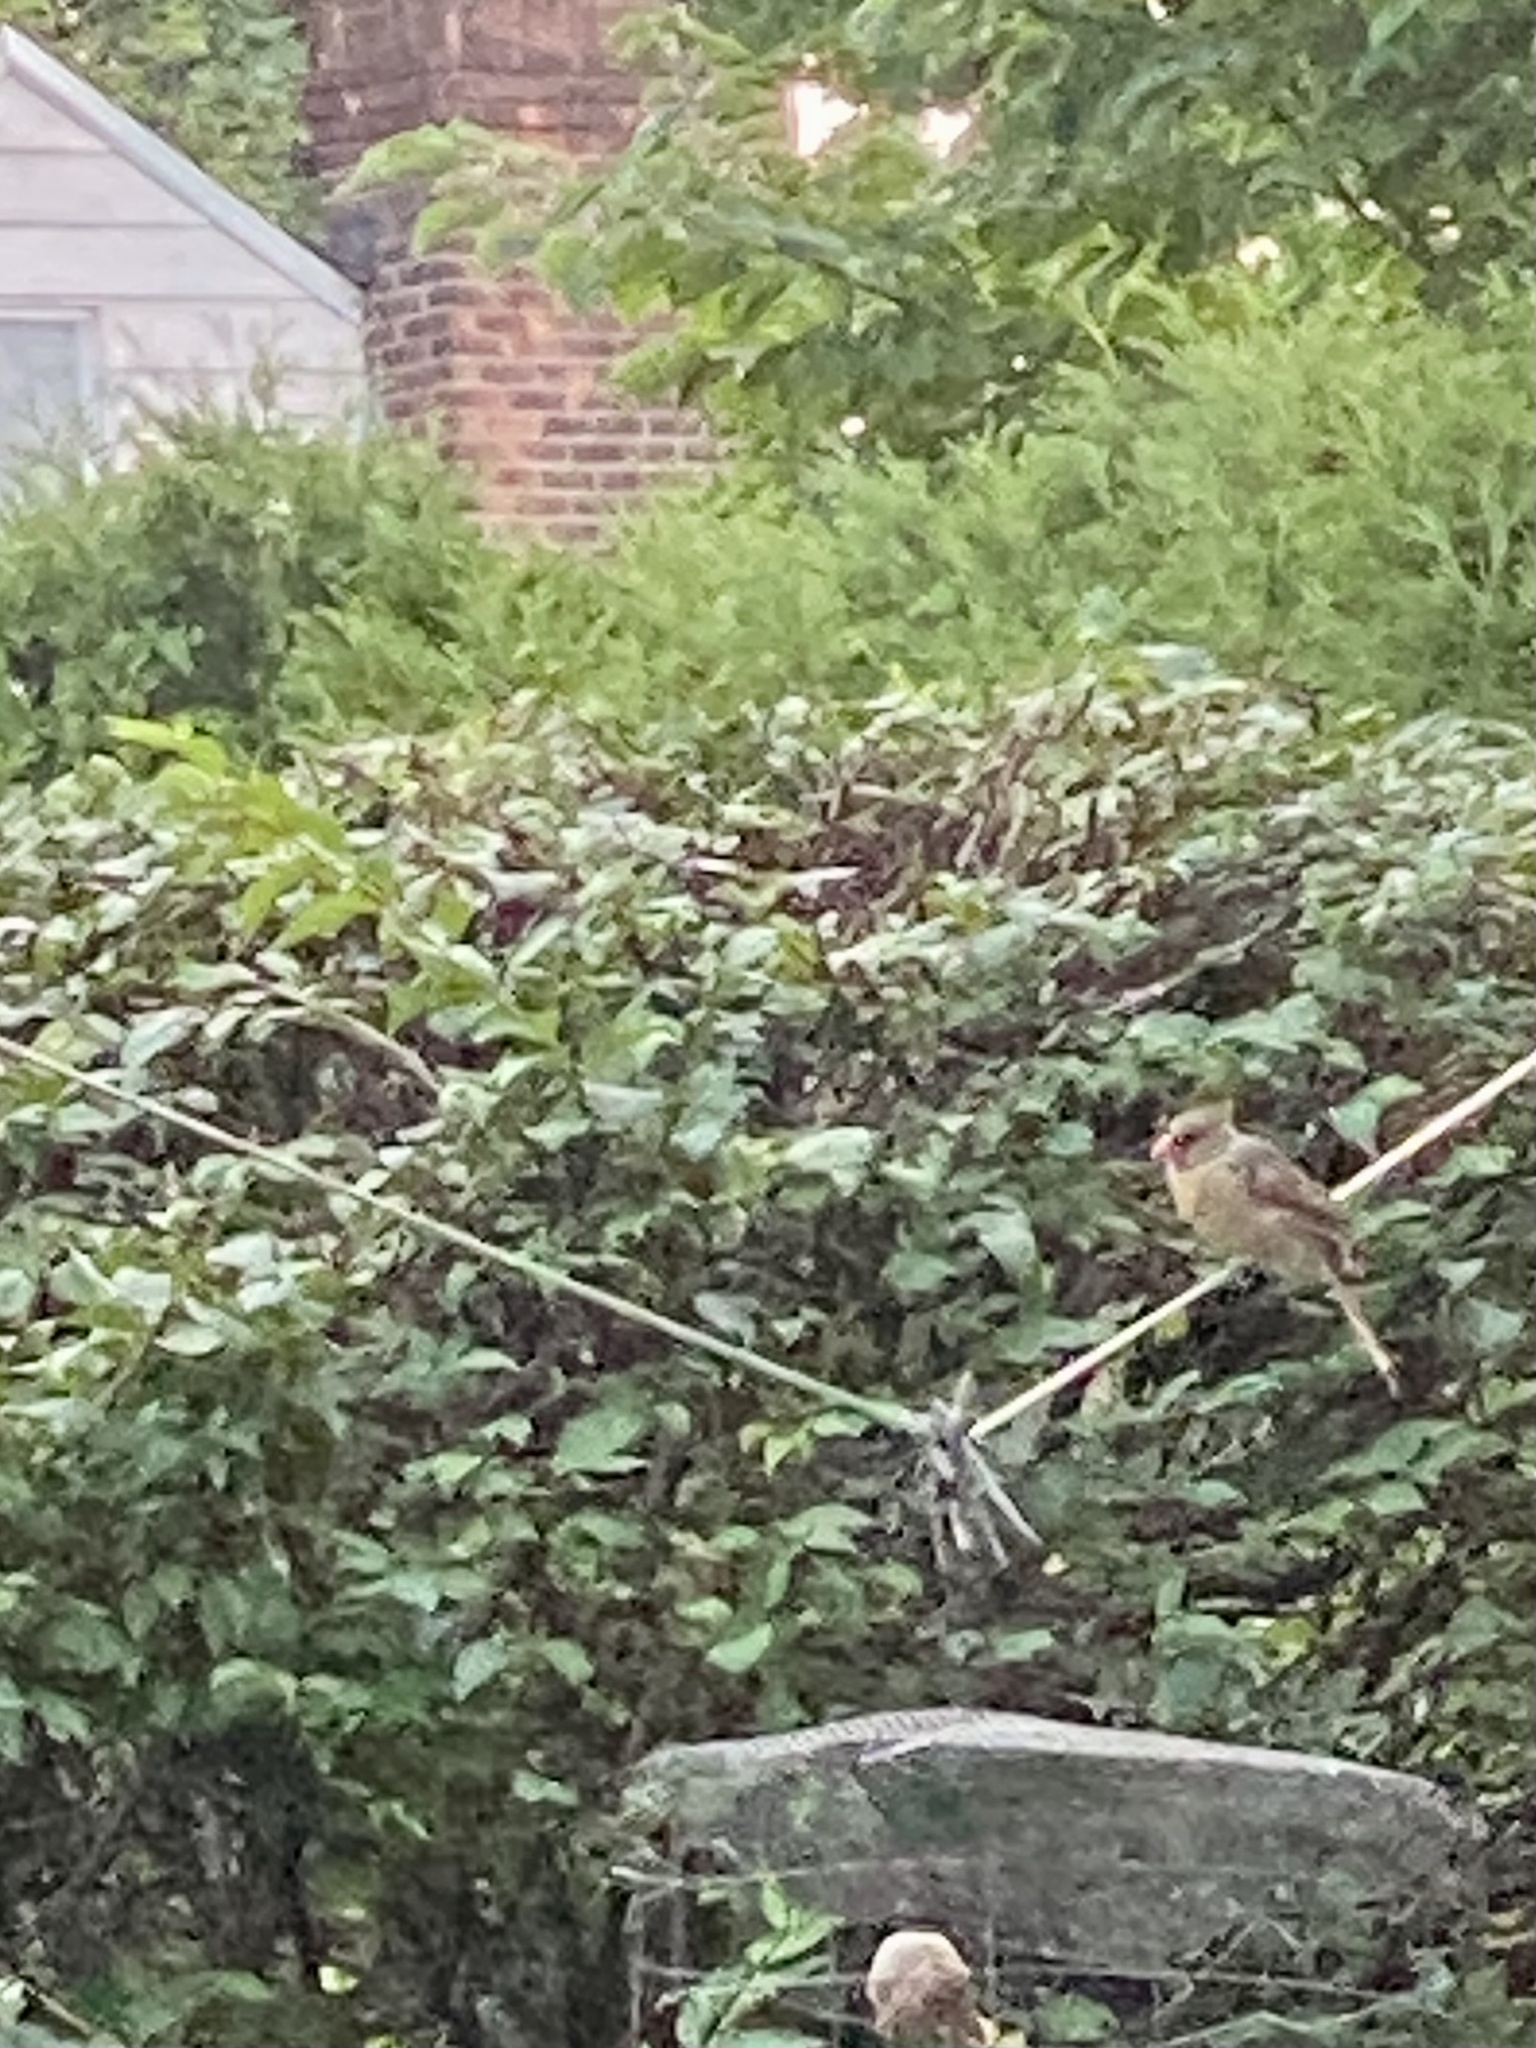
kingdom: Animalia
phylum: Chordata
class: Aves
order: Passeriformes
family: Cardinalidae
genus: Cardinalis
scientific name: Cardinalis cardinalis
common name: Northern cardinal
